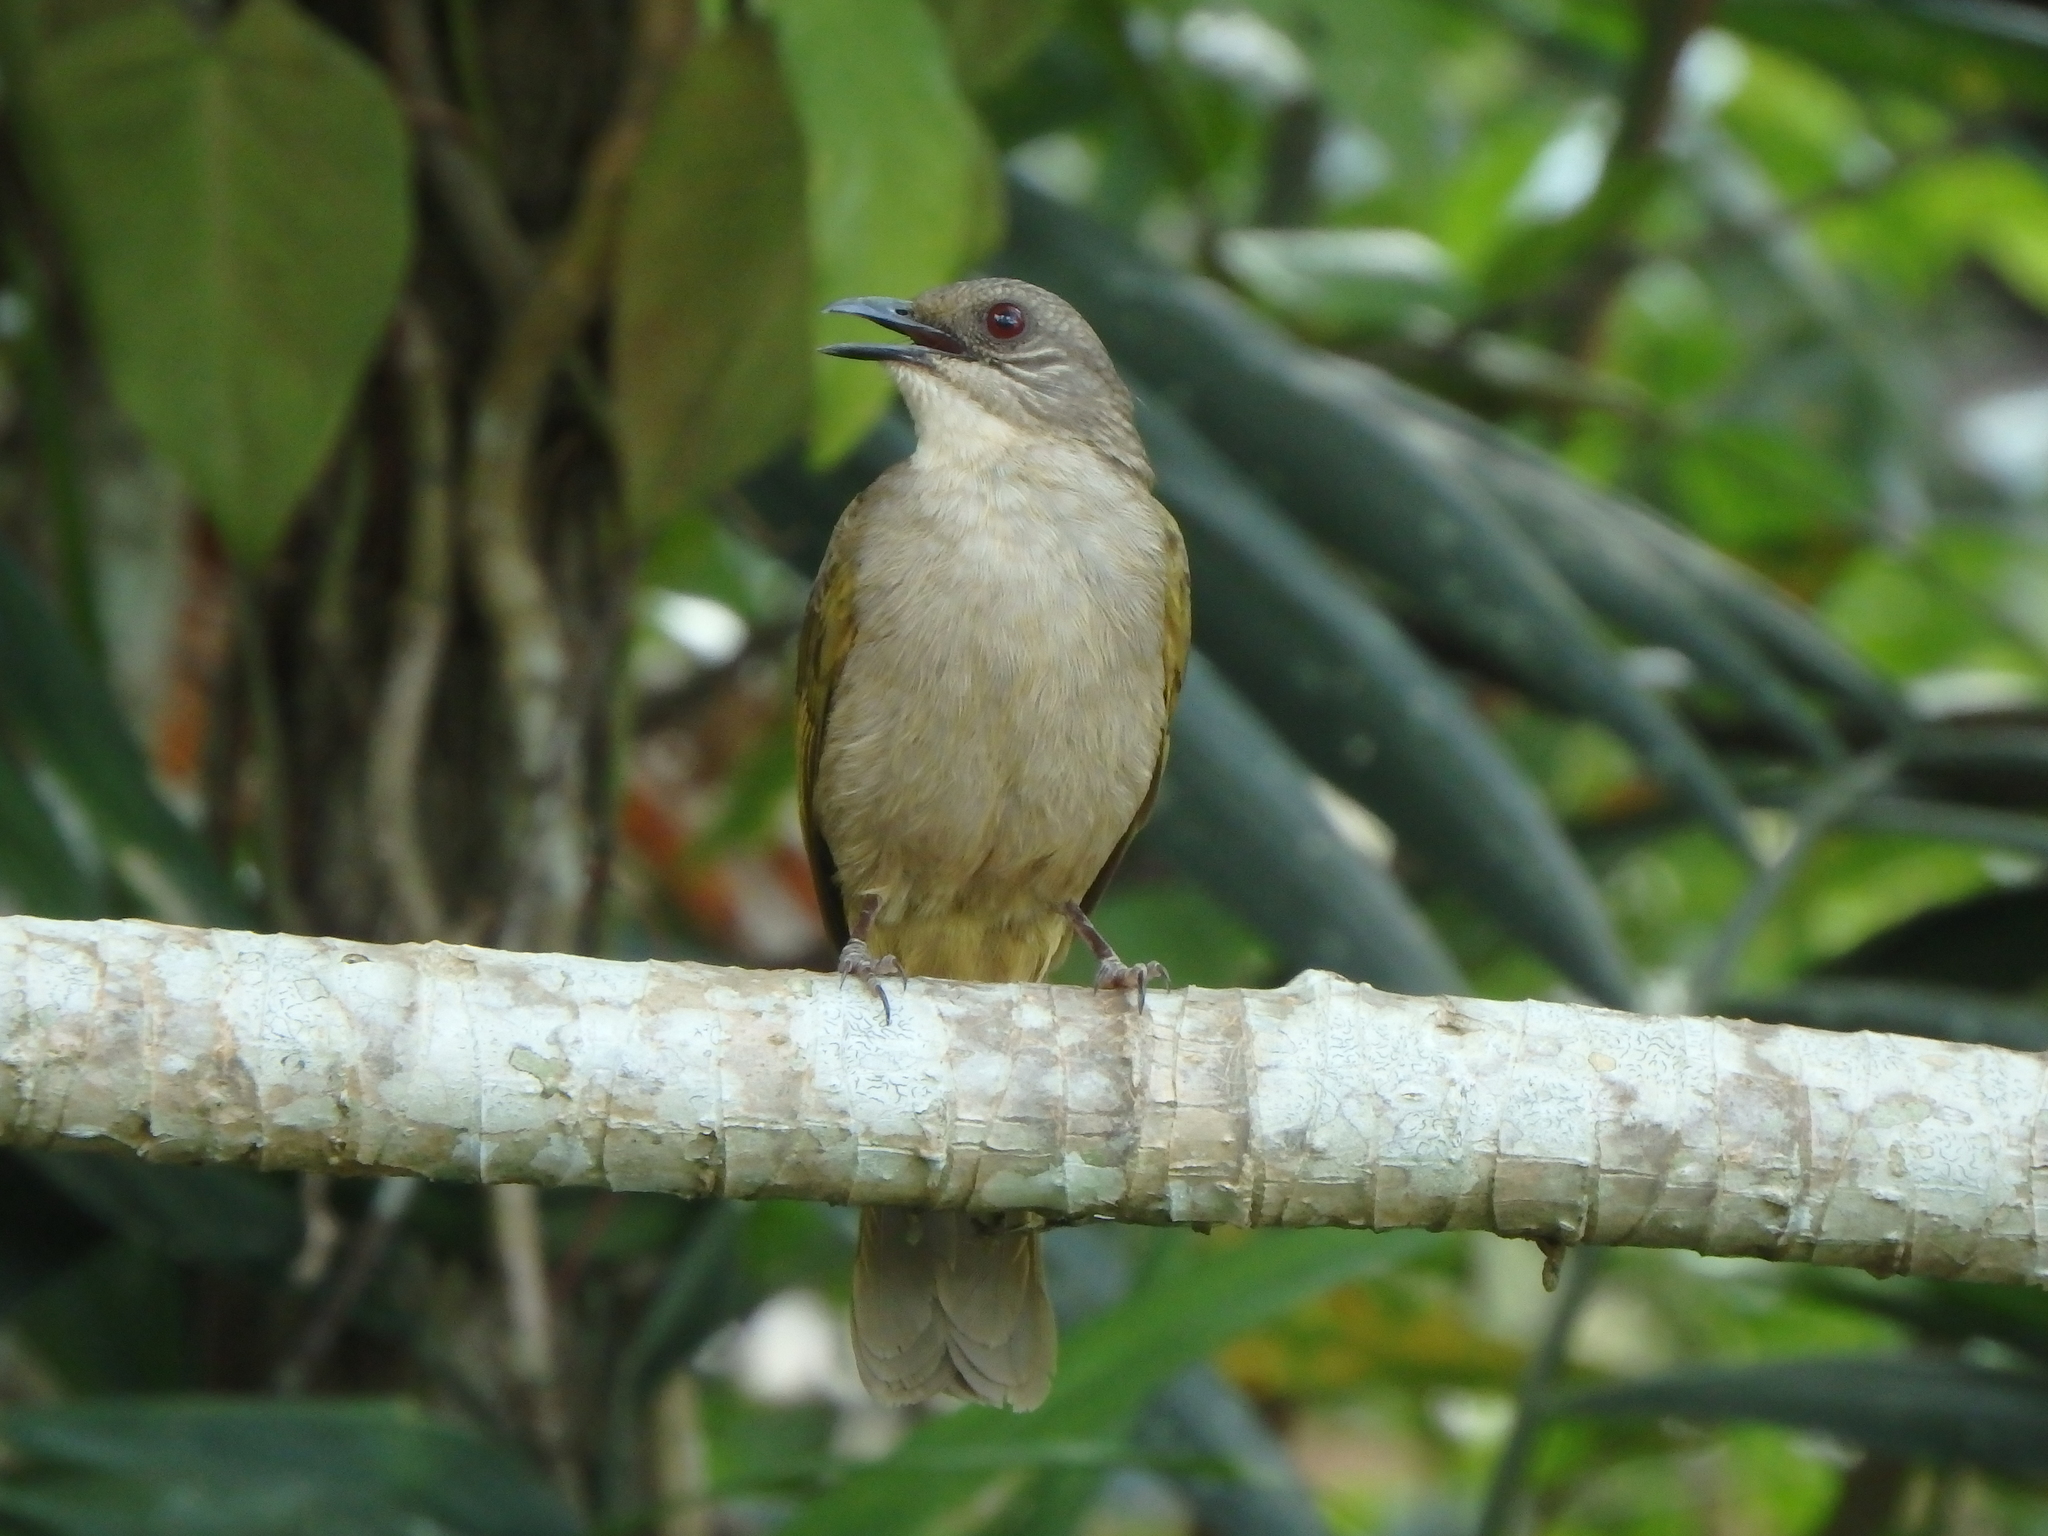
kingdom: Animalia
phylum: Chordata
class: Aves
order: Passeriformes
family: Pycnonotidae
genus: Pycnonotus
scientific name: Pycnonotus plumosus
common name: Olive-winged bulbul
